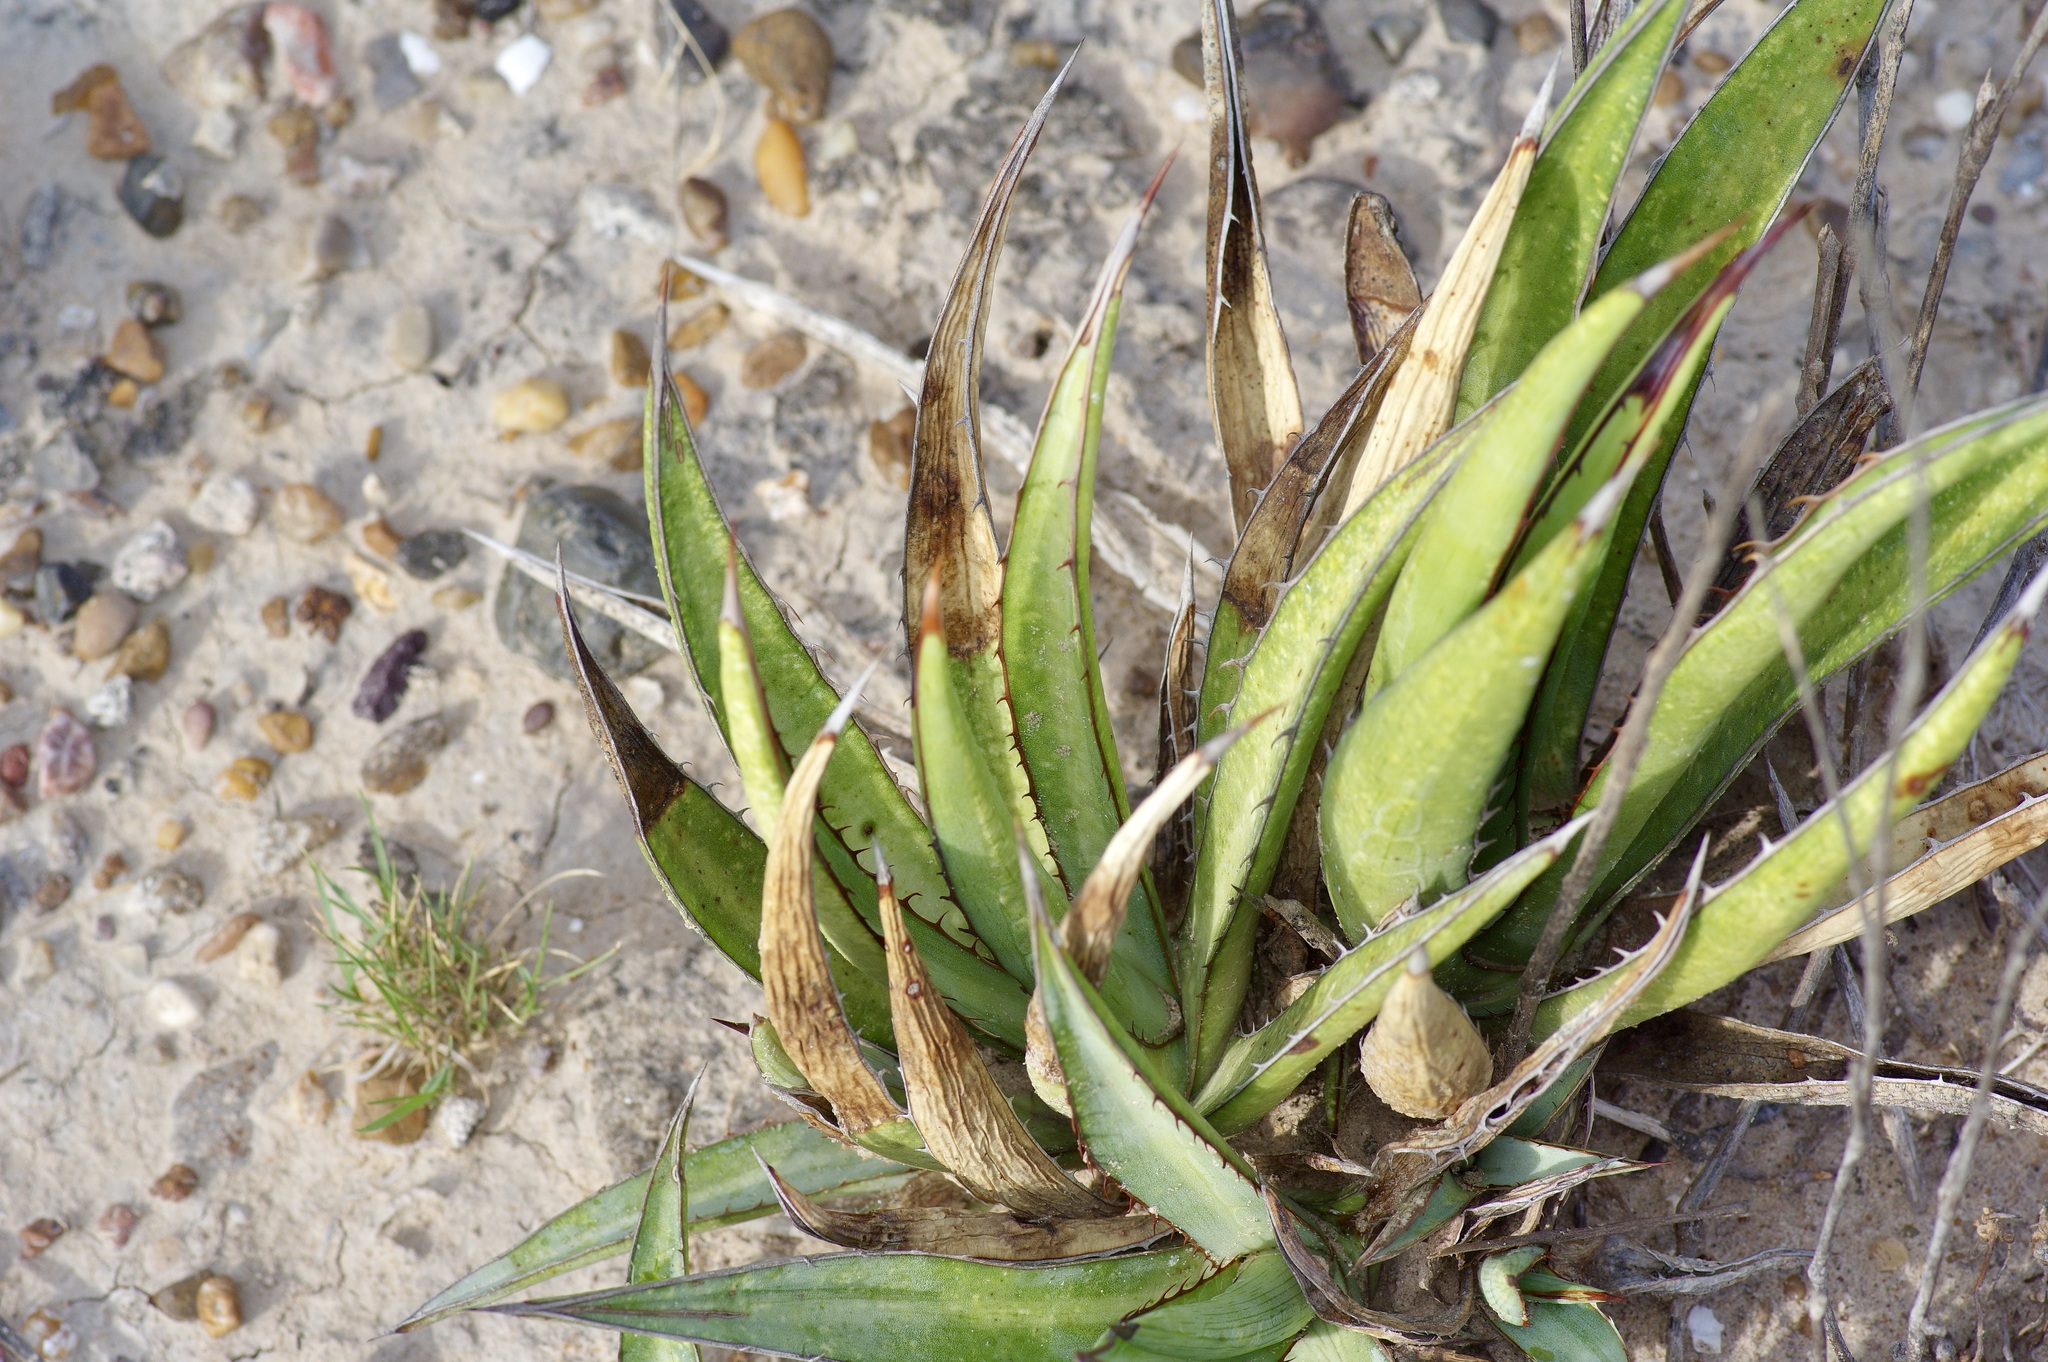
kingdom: Plantae
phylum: Tracheophyta
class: Liliopsida
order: Asparagales
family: Asparagaceae
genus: Agave
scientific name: Agave univittata
